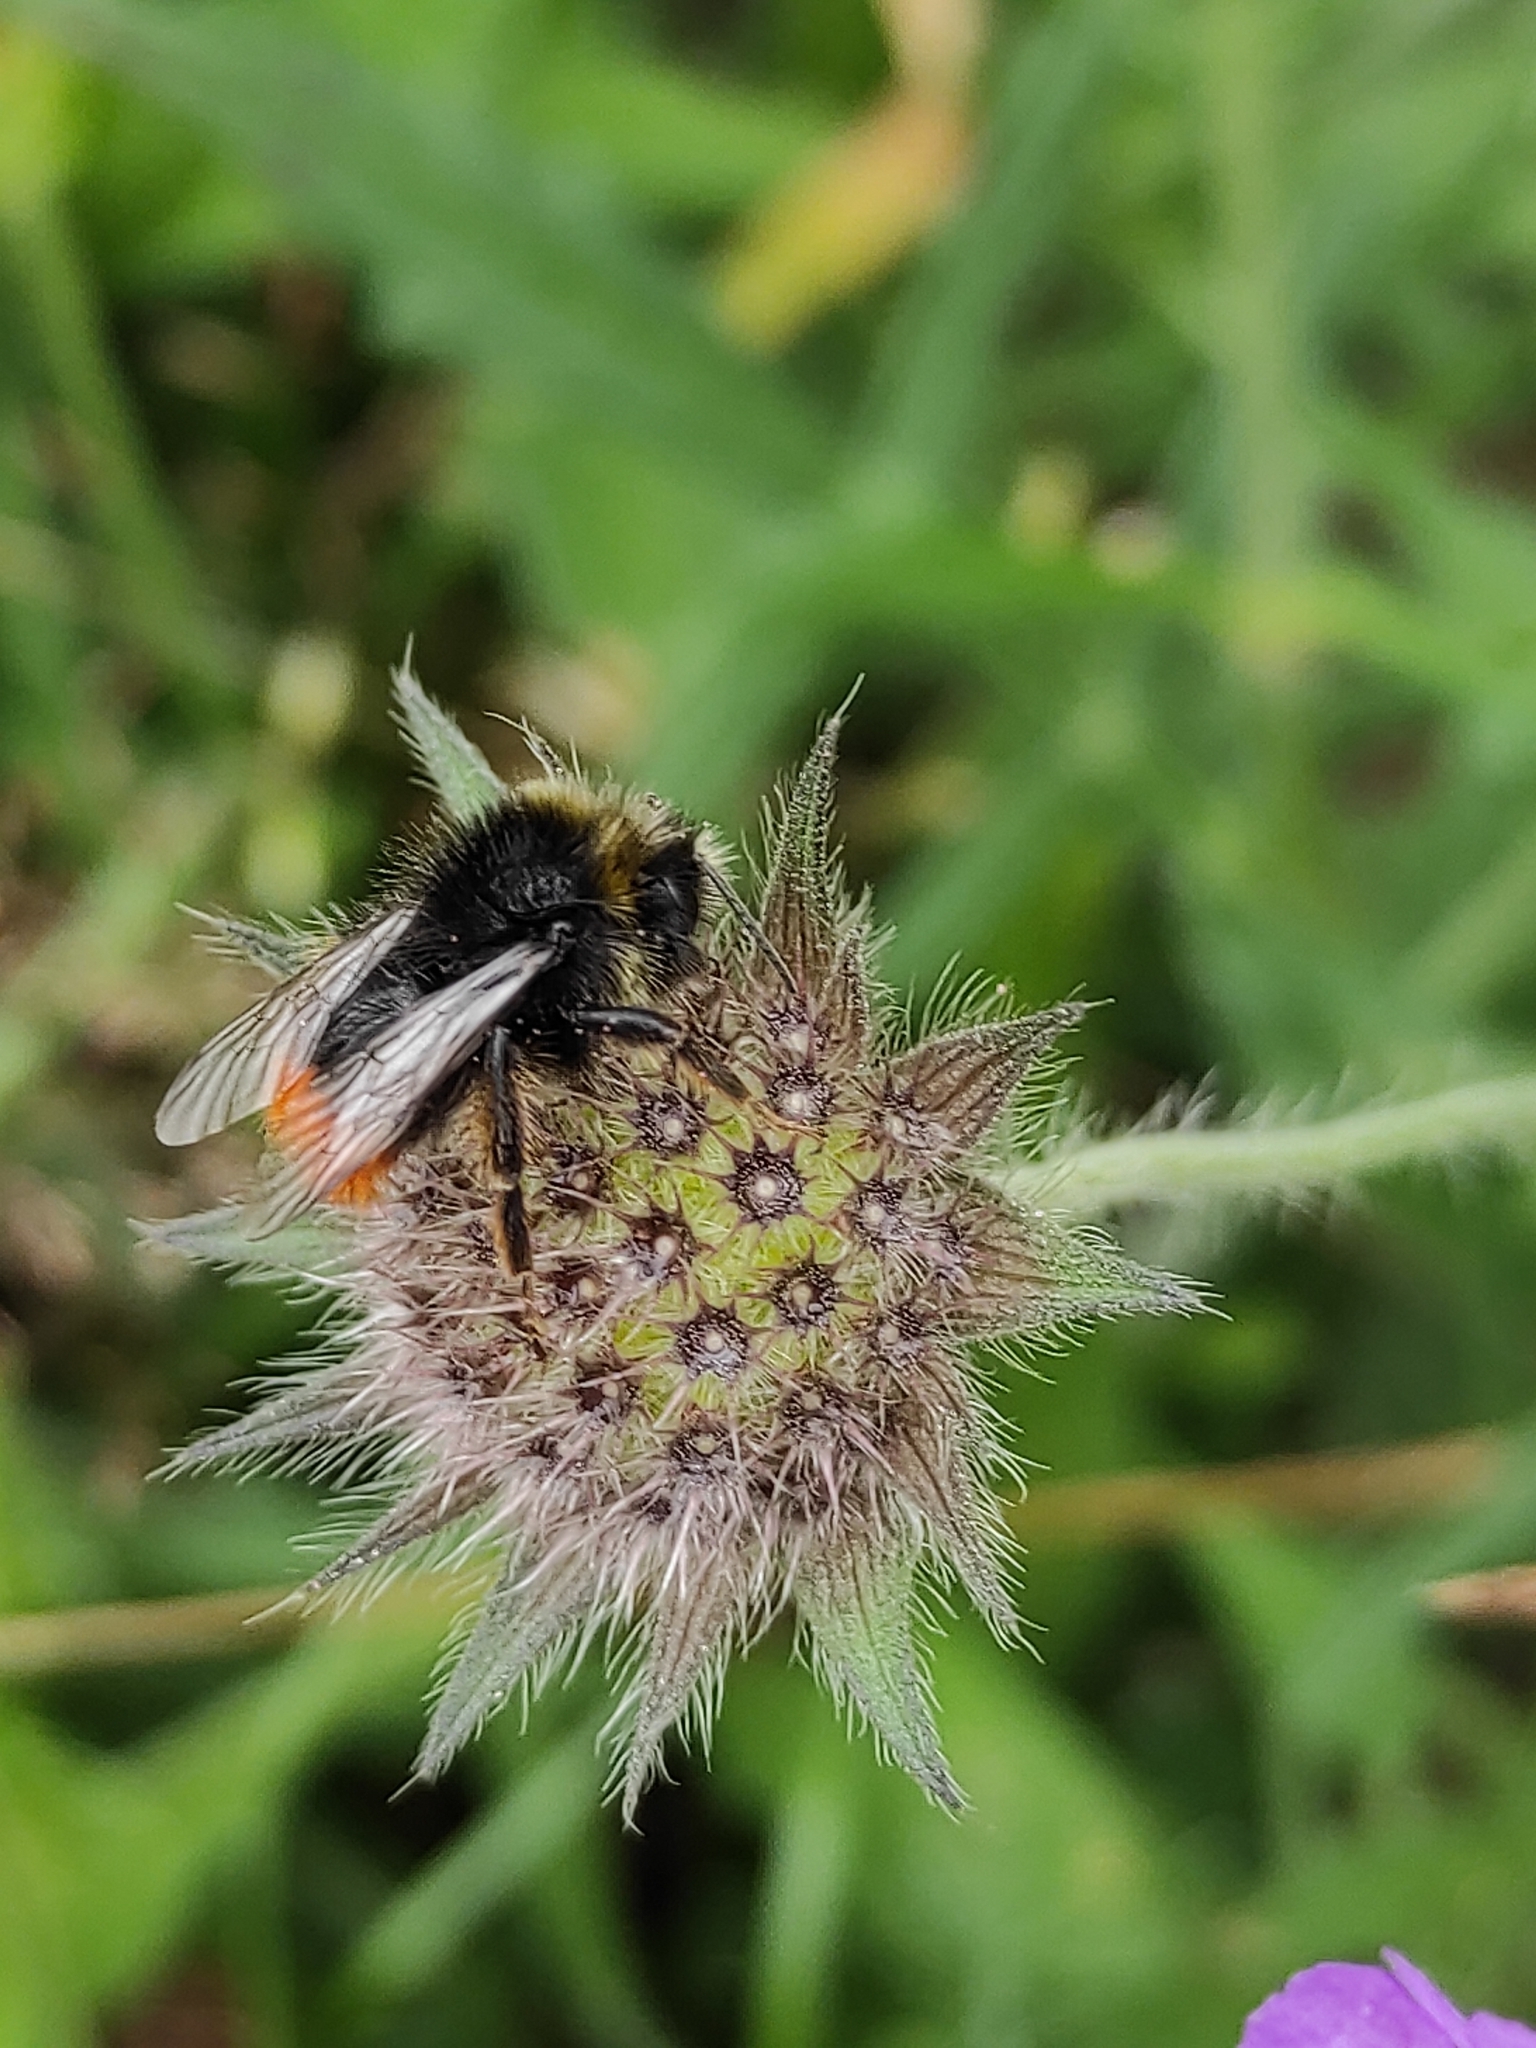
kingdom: Animalia
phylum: Arthropoda
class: Insecta
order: Hymenoptera
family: Apidae
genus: Bombus
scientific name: Bombus lapidarius
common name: Large red-tailed humble-bee
